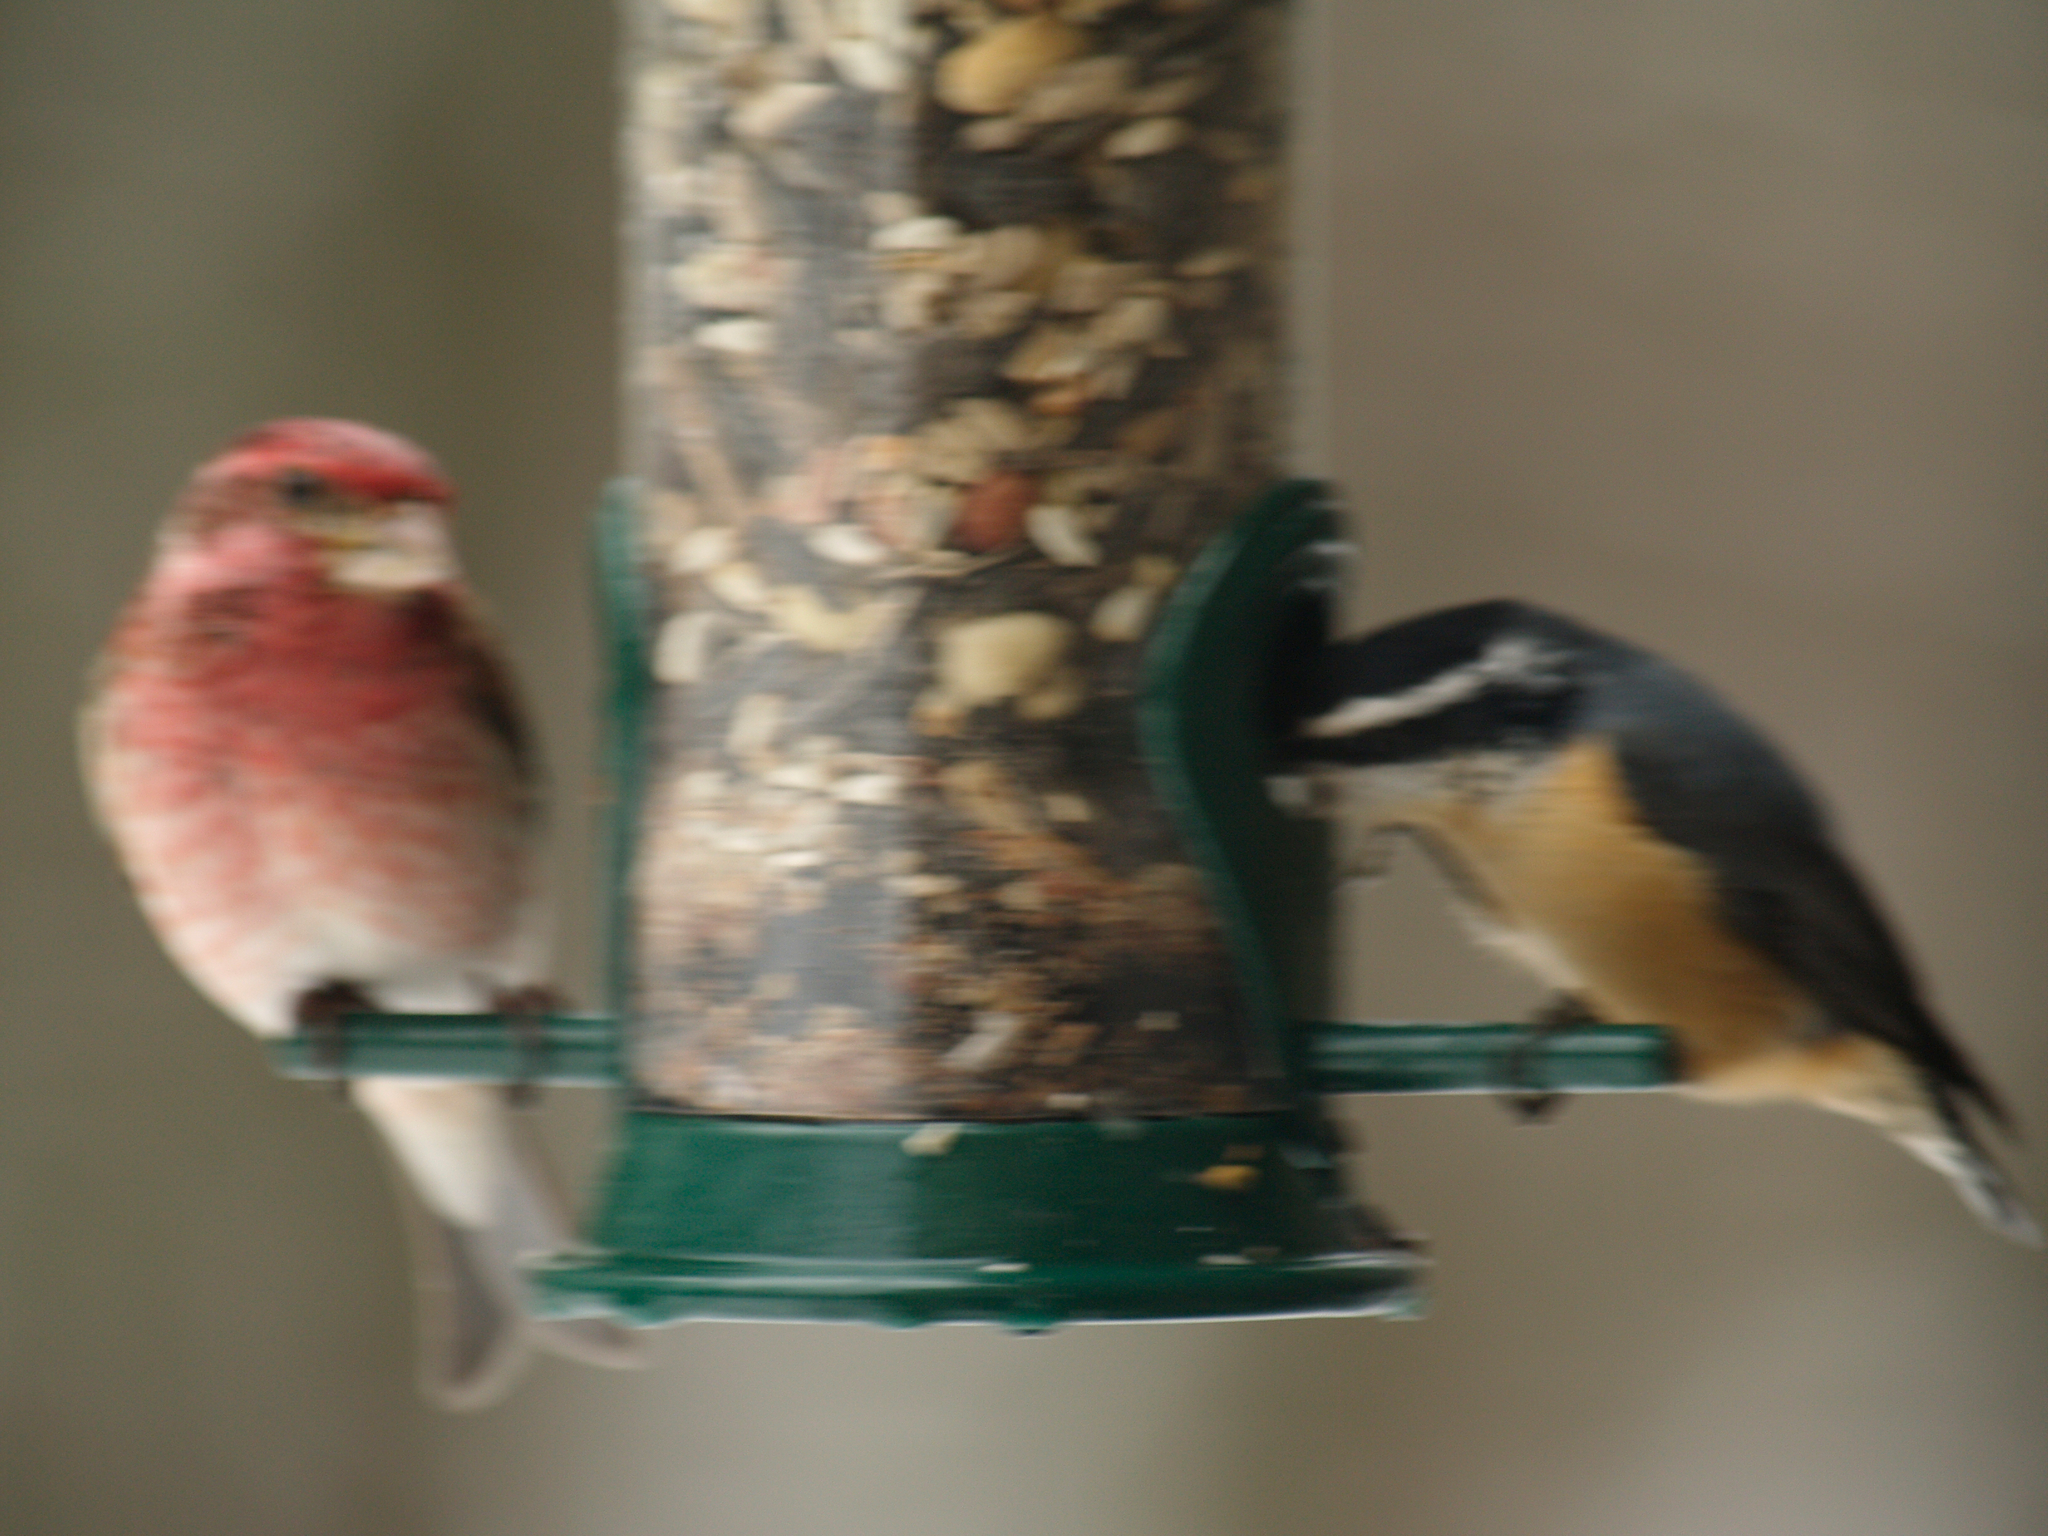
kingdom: Animalia
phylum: Chordata
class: Aves
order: Passeriformes
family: Sittidae
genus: Sitta
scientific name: Sitta canadensis
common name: Red-breasted nuthatch
